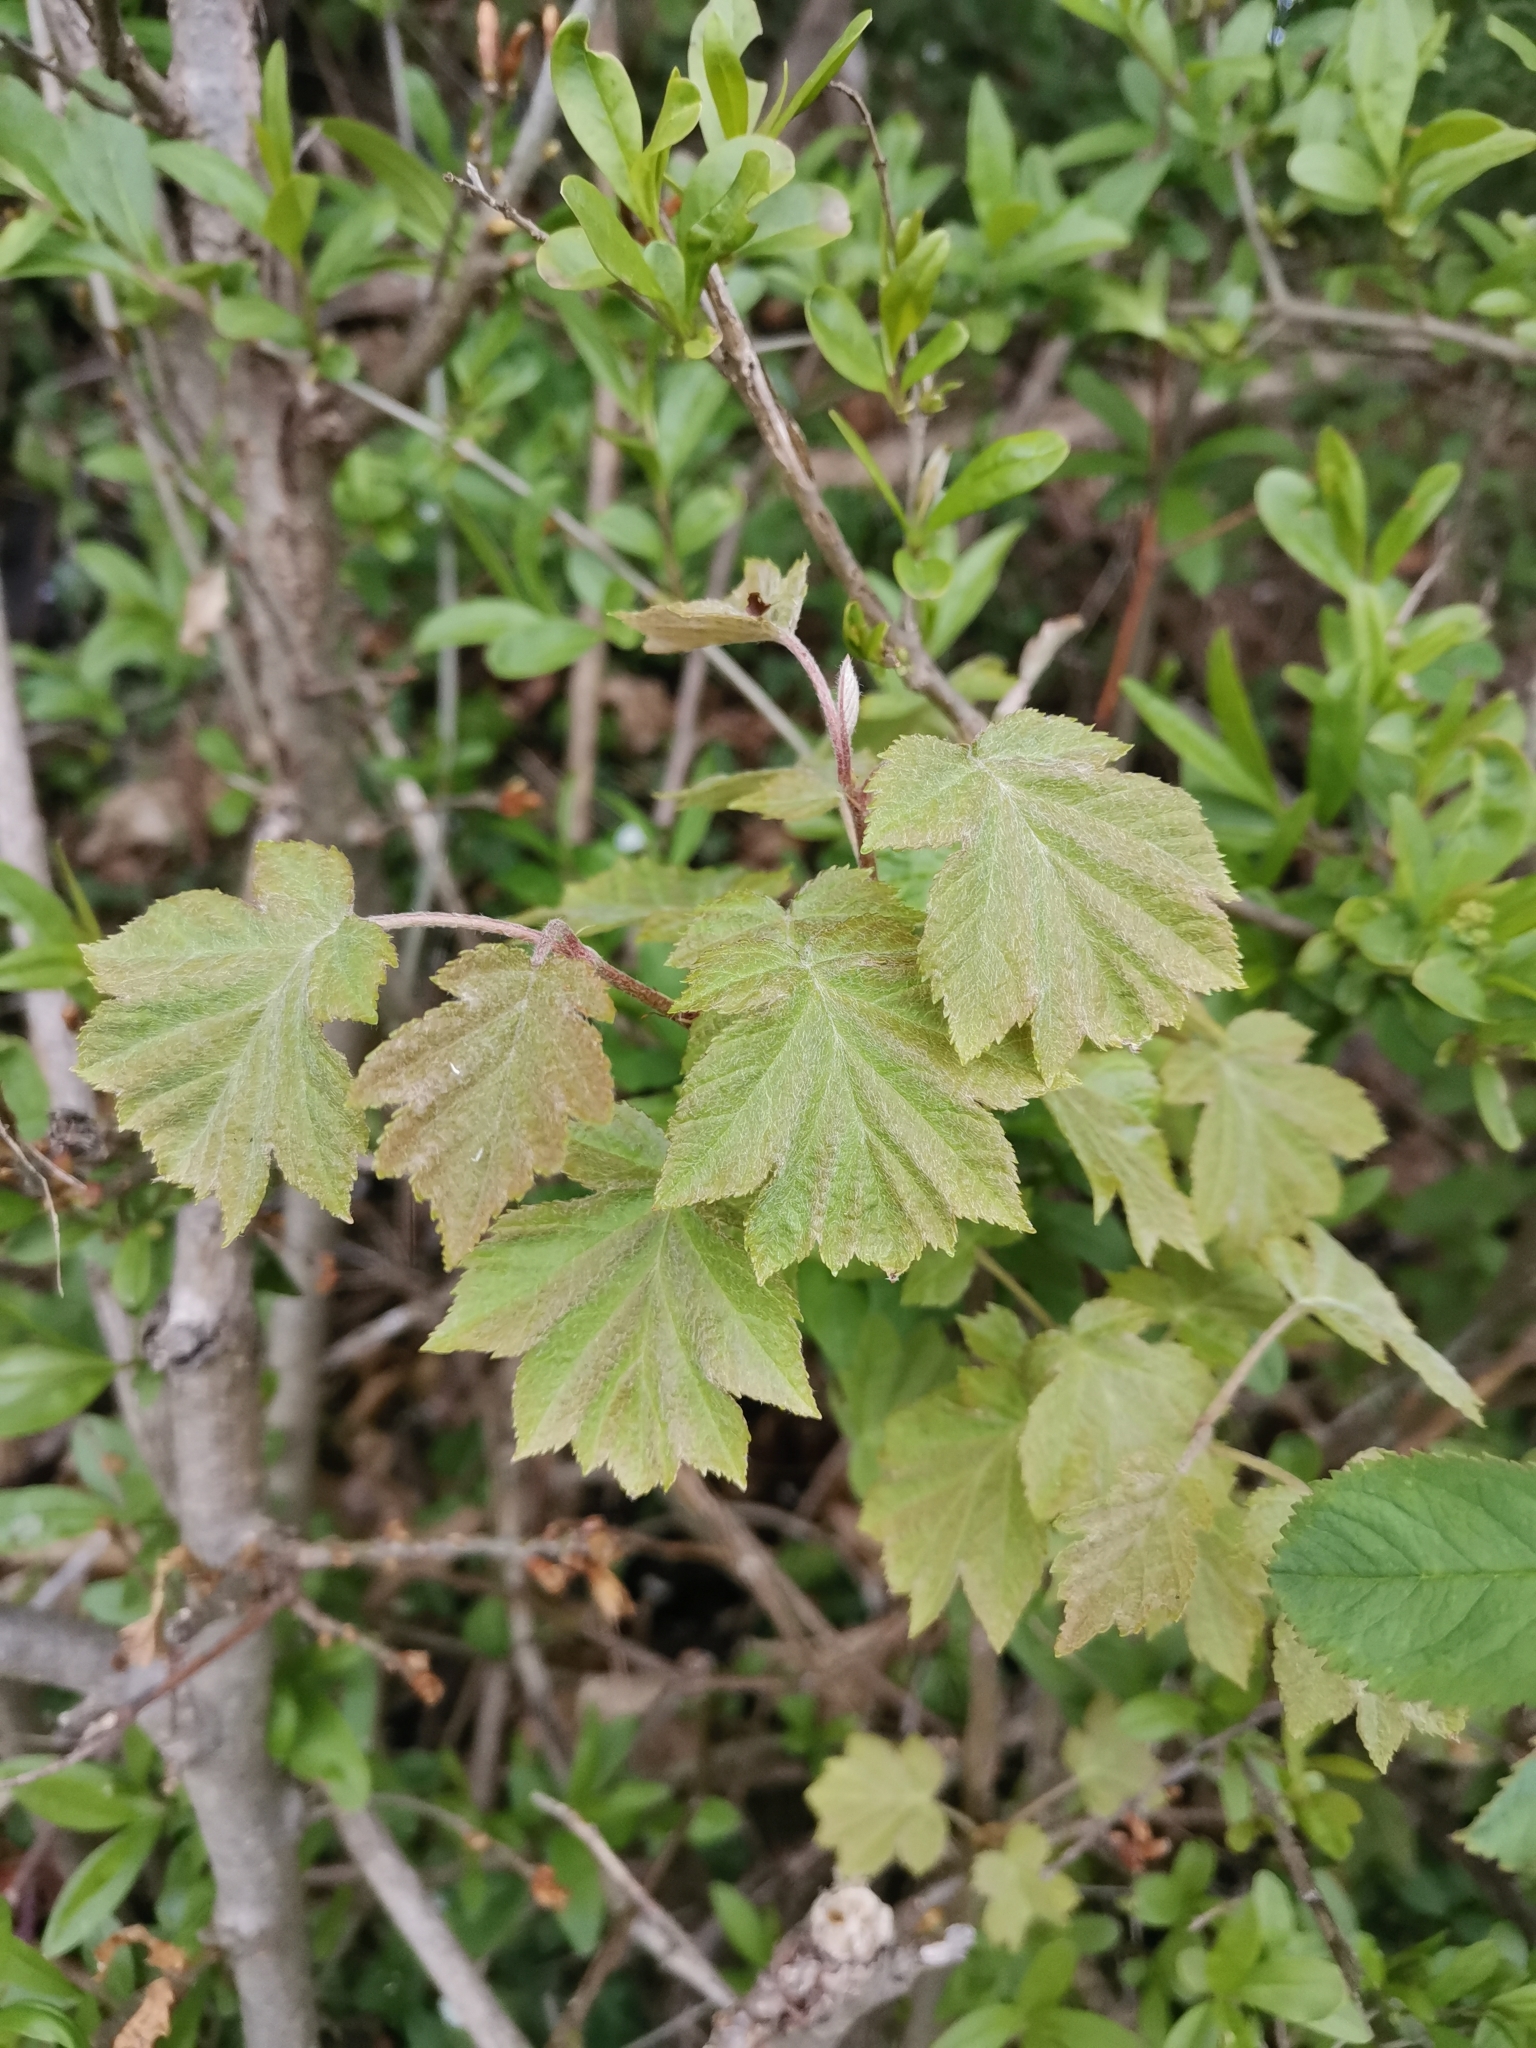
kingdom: Plantae
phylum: Tracheophyta
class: Magnoliopsida
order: Rosales
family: Rosaceae
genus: Torminalis
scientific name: Torminalis glaberrima
